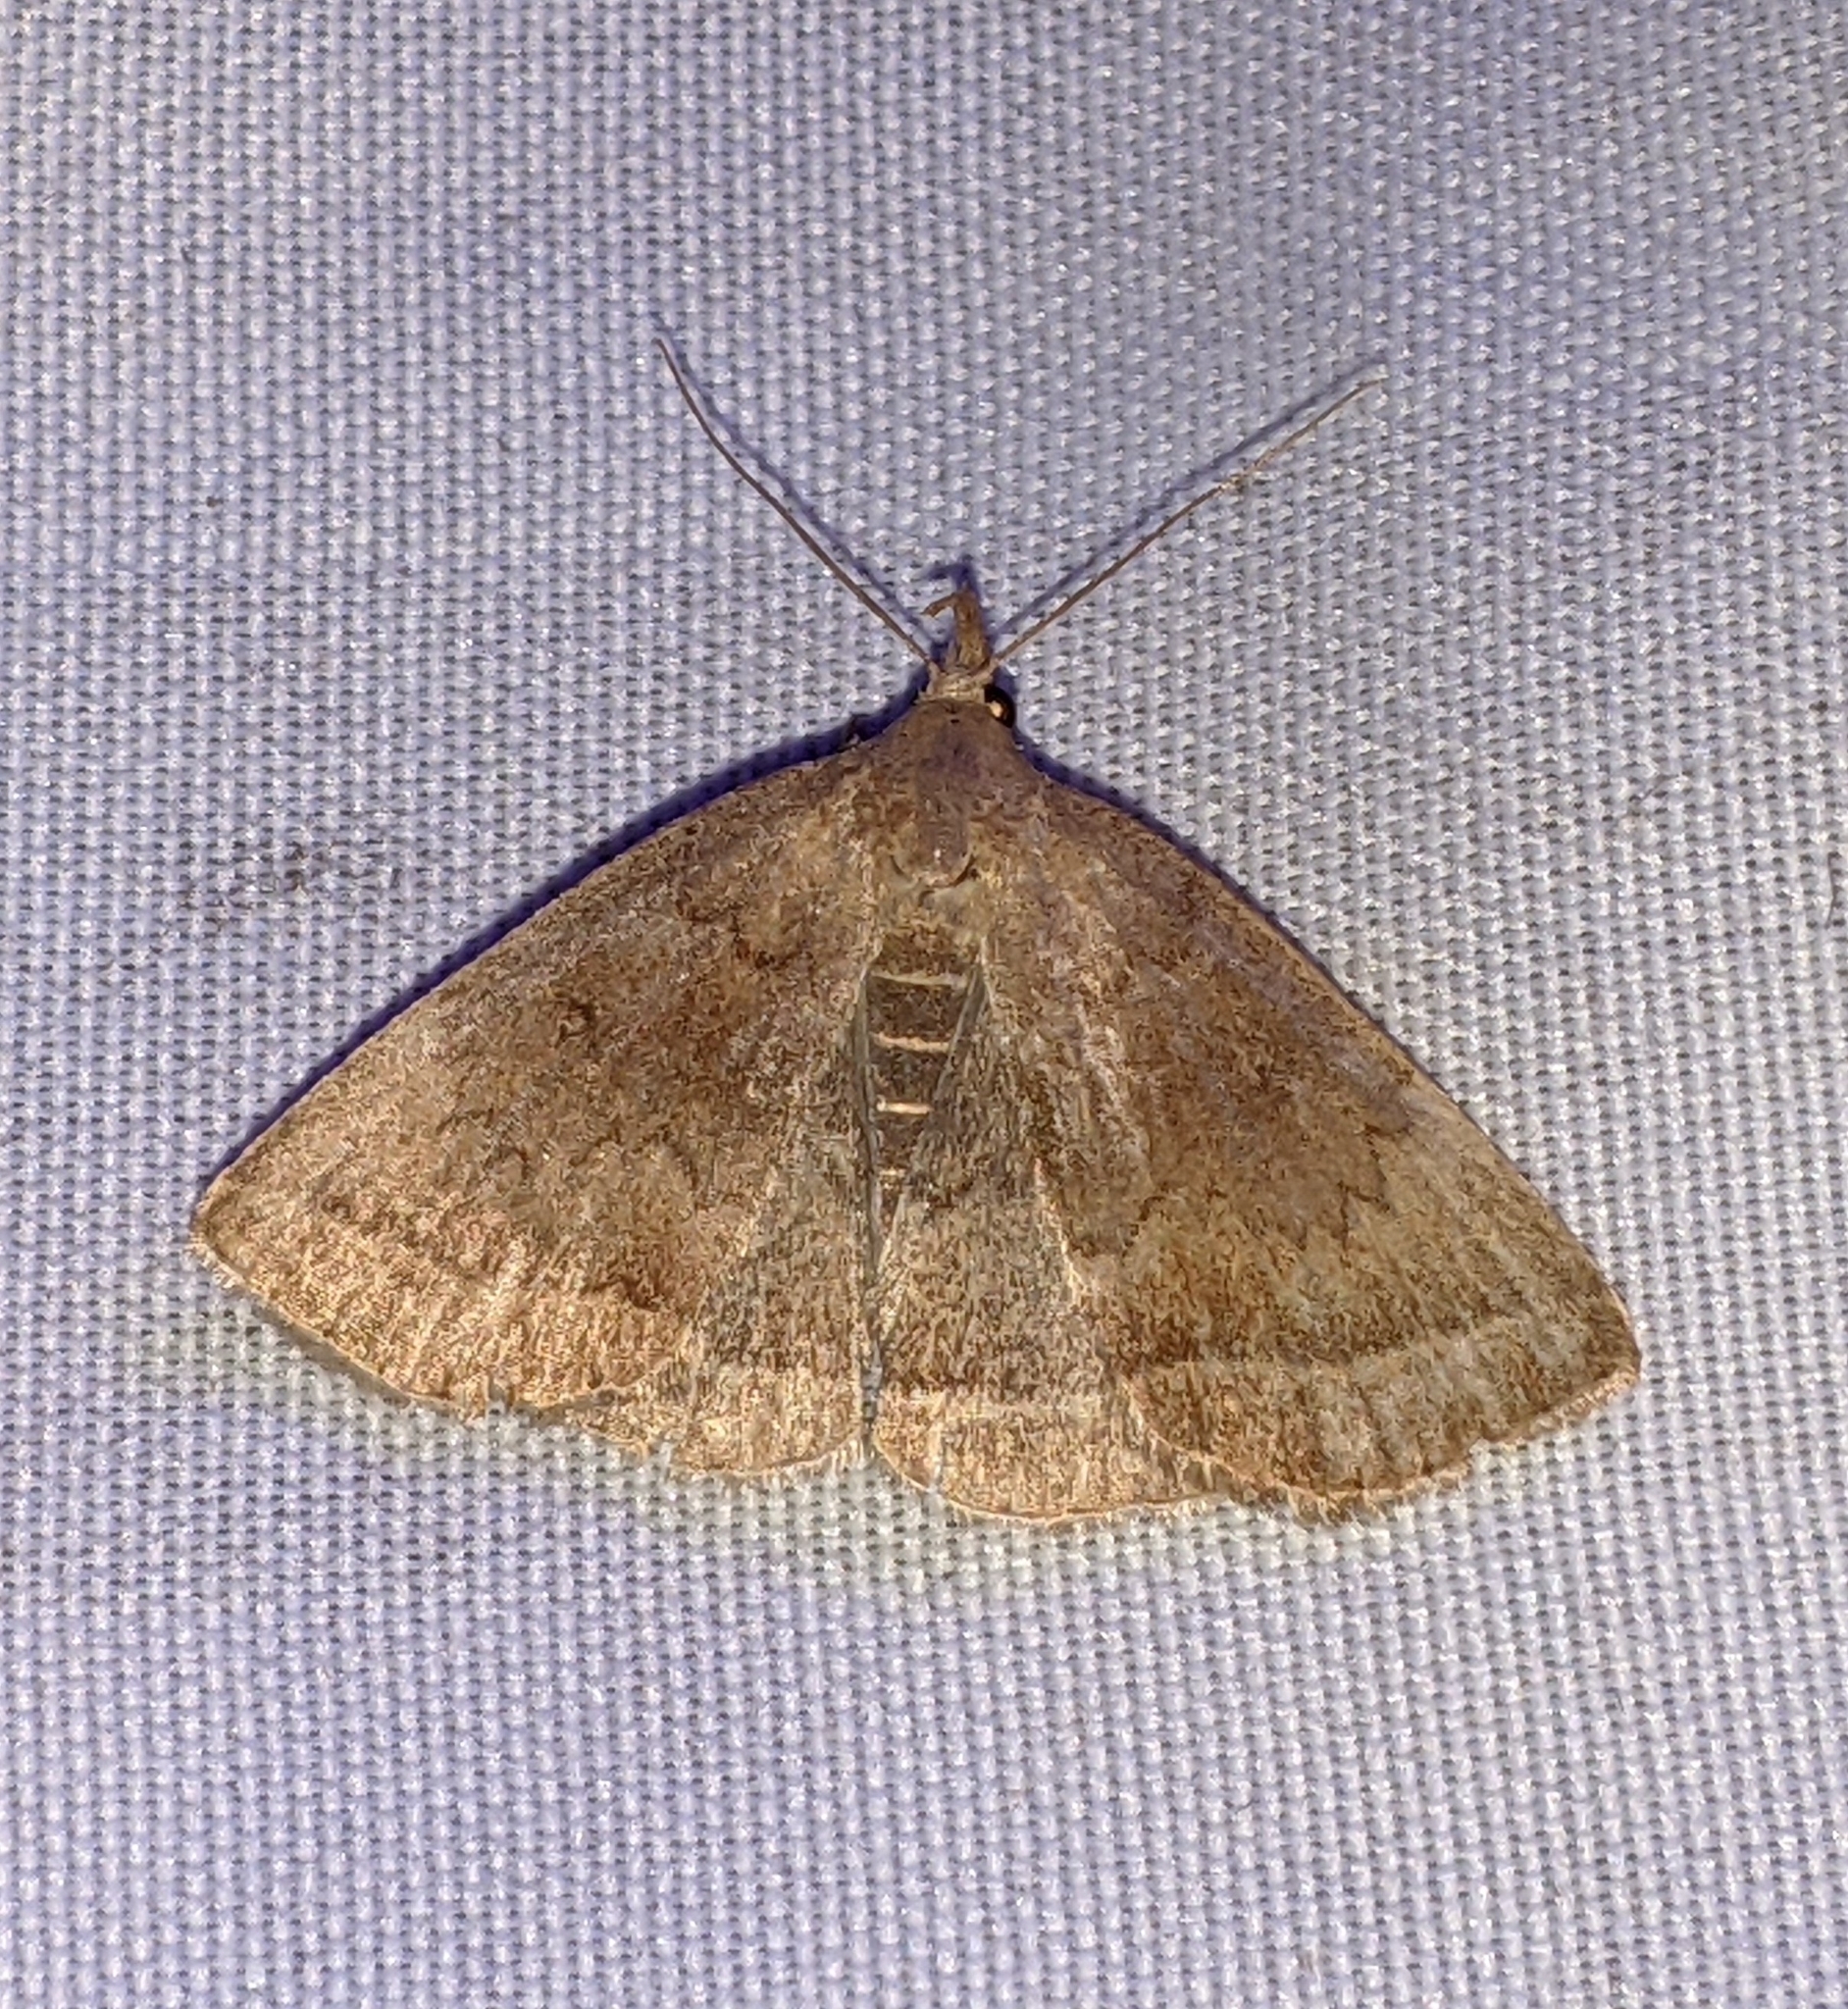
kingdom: Animalia
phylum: Arthropoda
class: Insecta
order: Lepidoptera
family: Erebidae
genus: Zanclognatha
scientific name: Zanclognatha jacchusalis
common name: Yellowish zanclognatha
